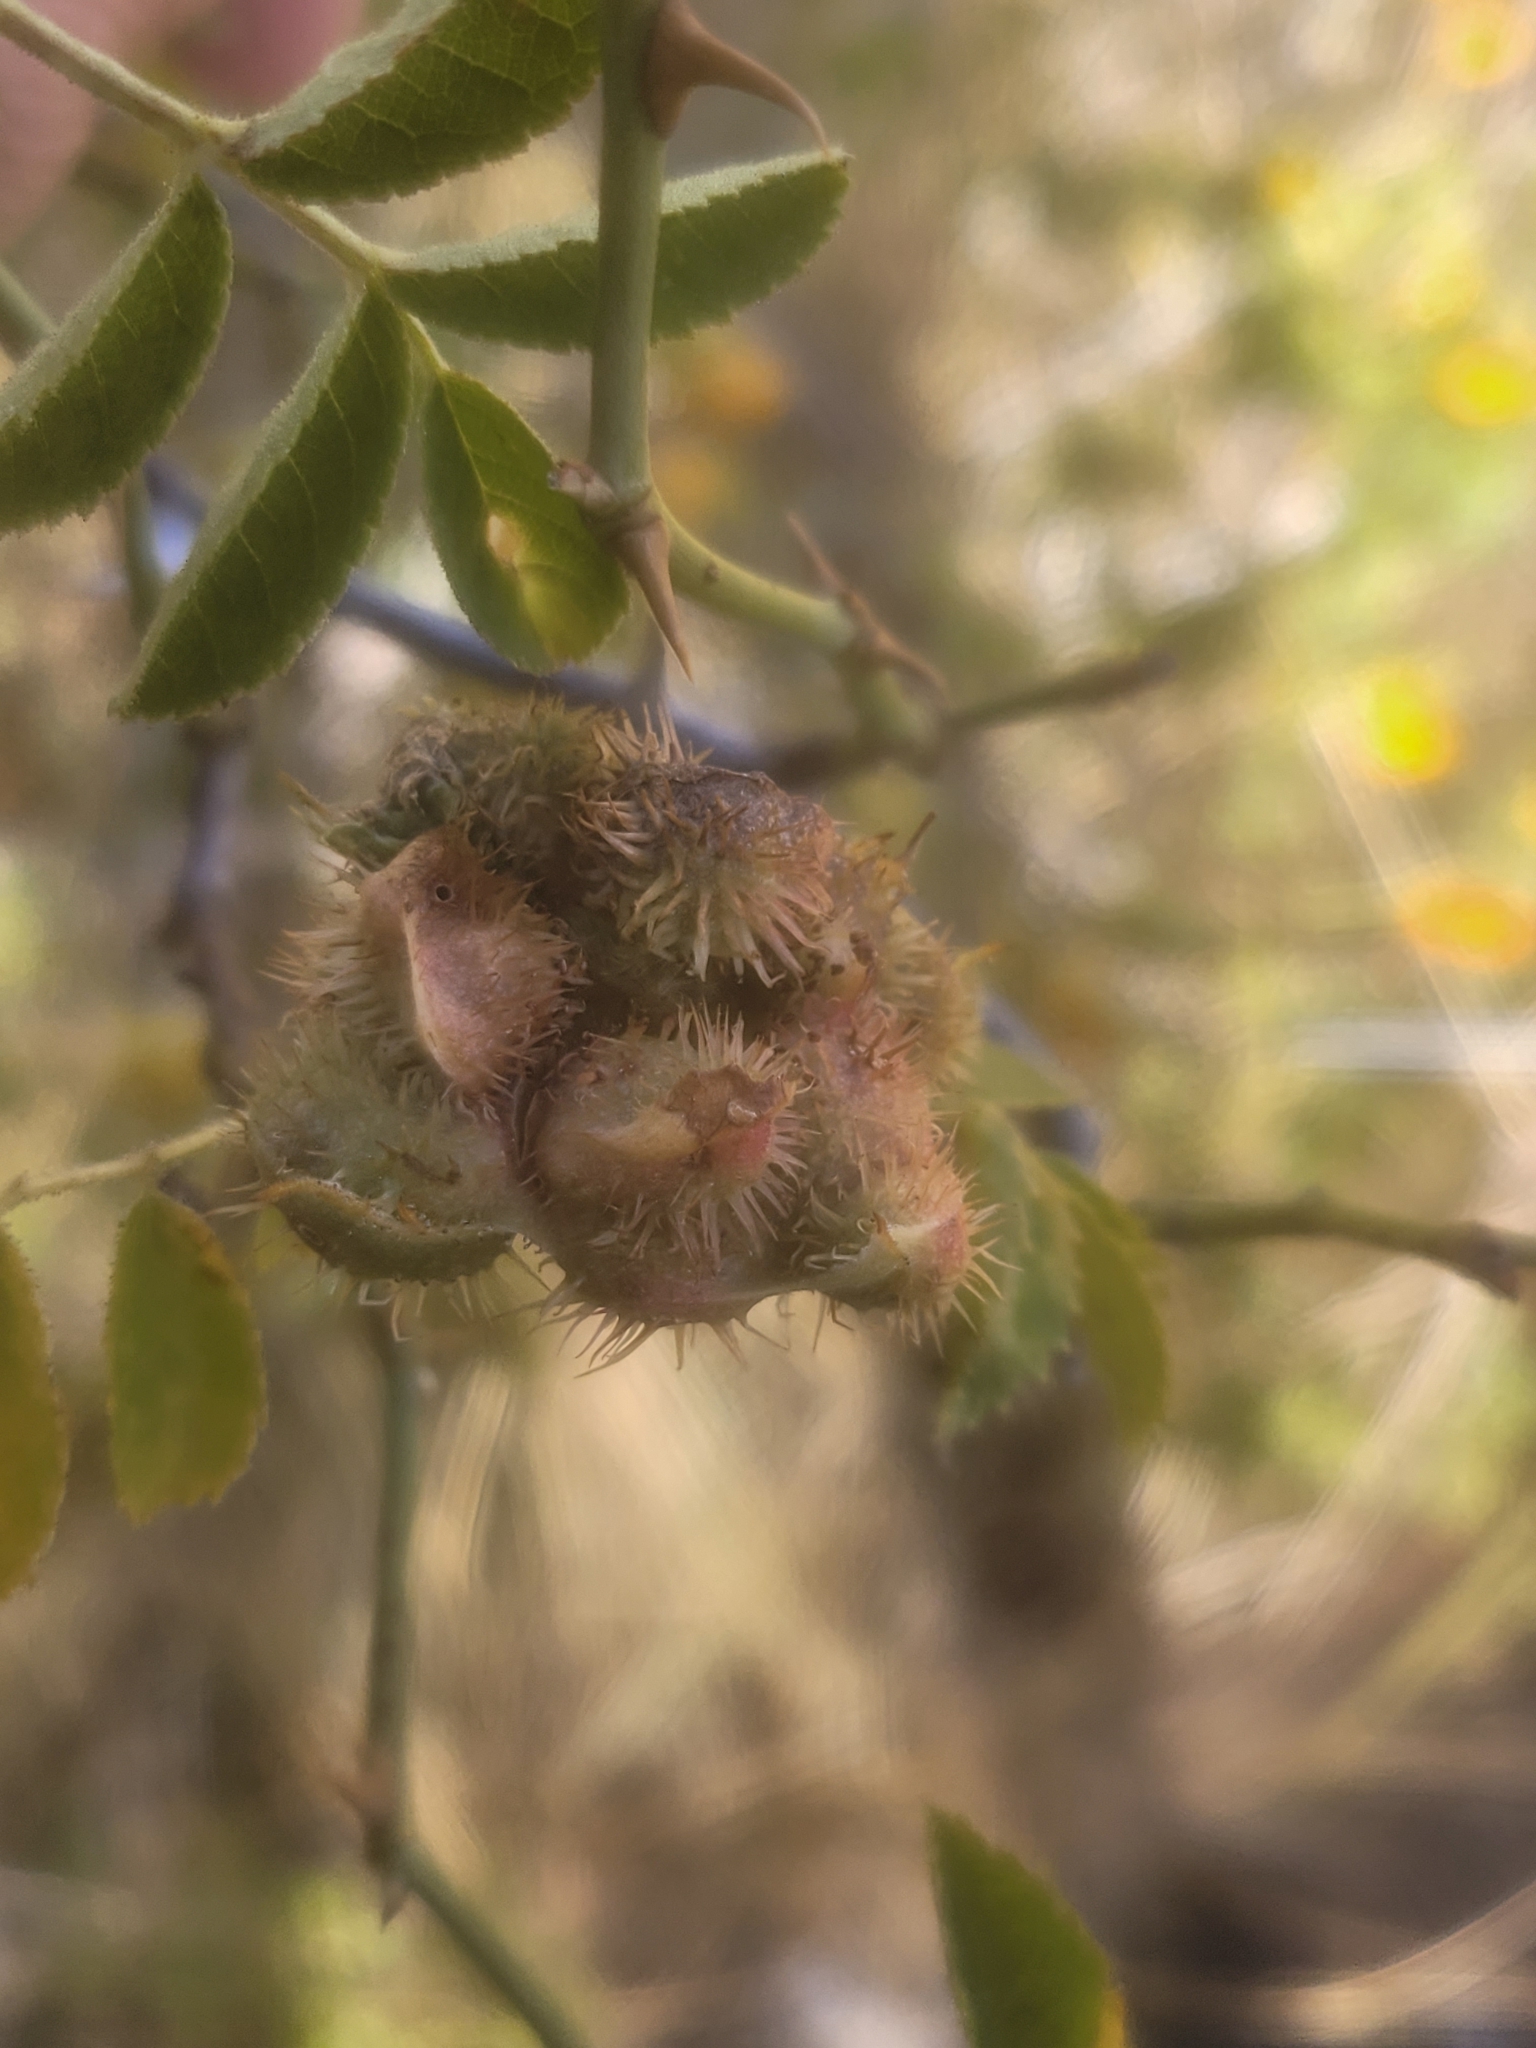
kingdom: Animalia
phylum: Arthropoda
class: Insecta
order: Hymenoptera
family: Cynipidae
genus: Diplolepis
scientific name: Diplolepis mayri
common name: Gall wasp
